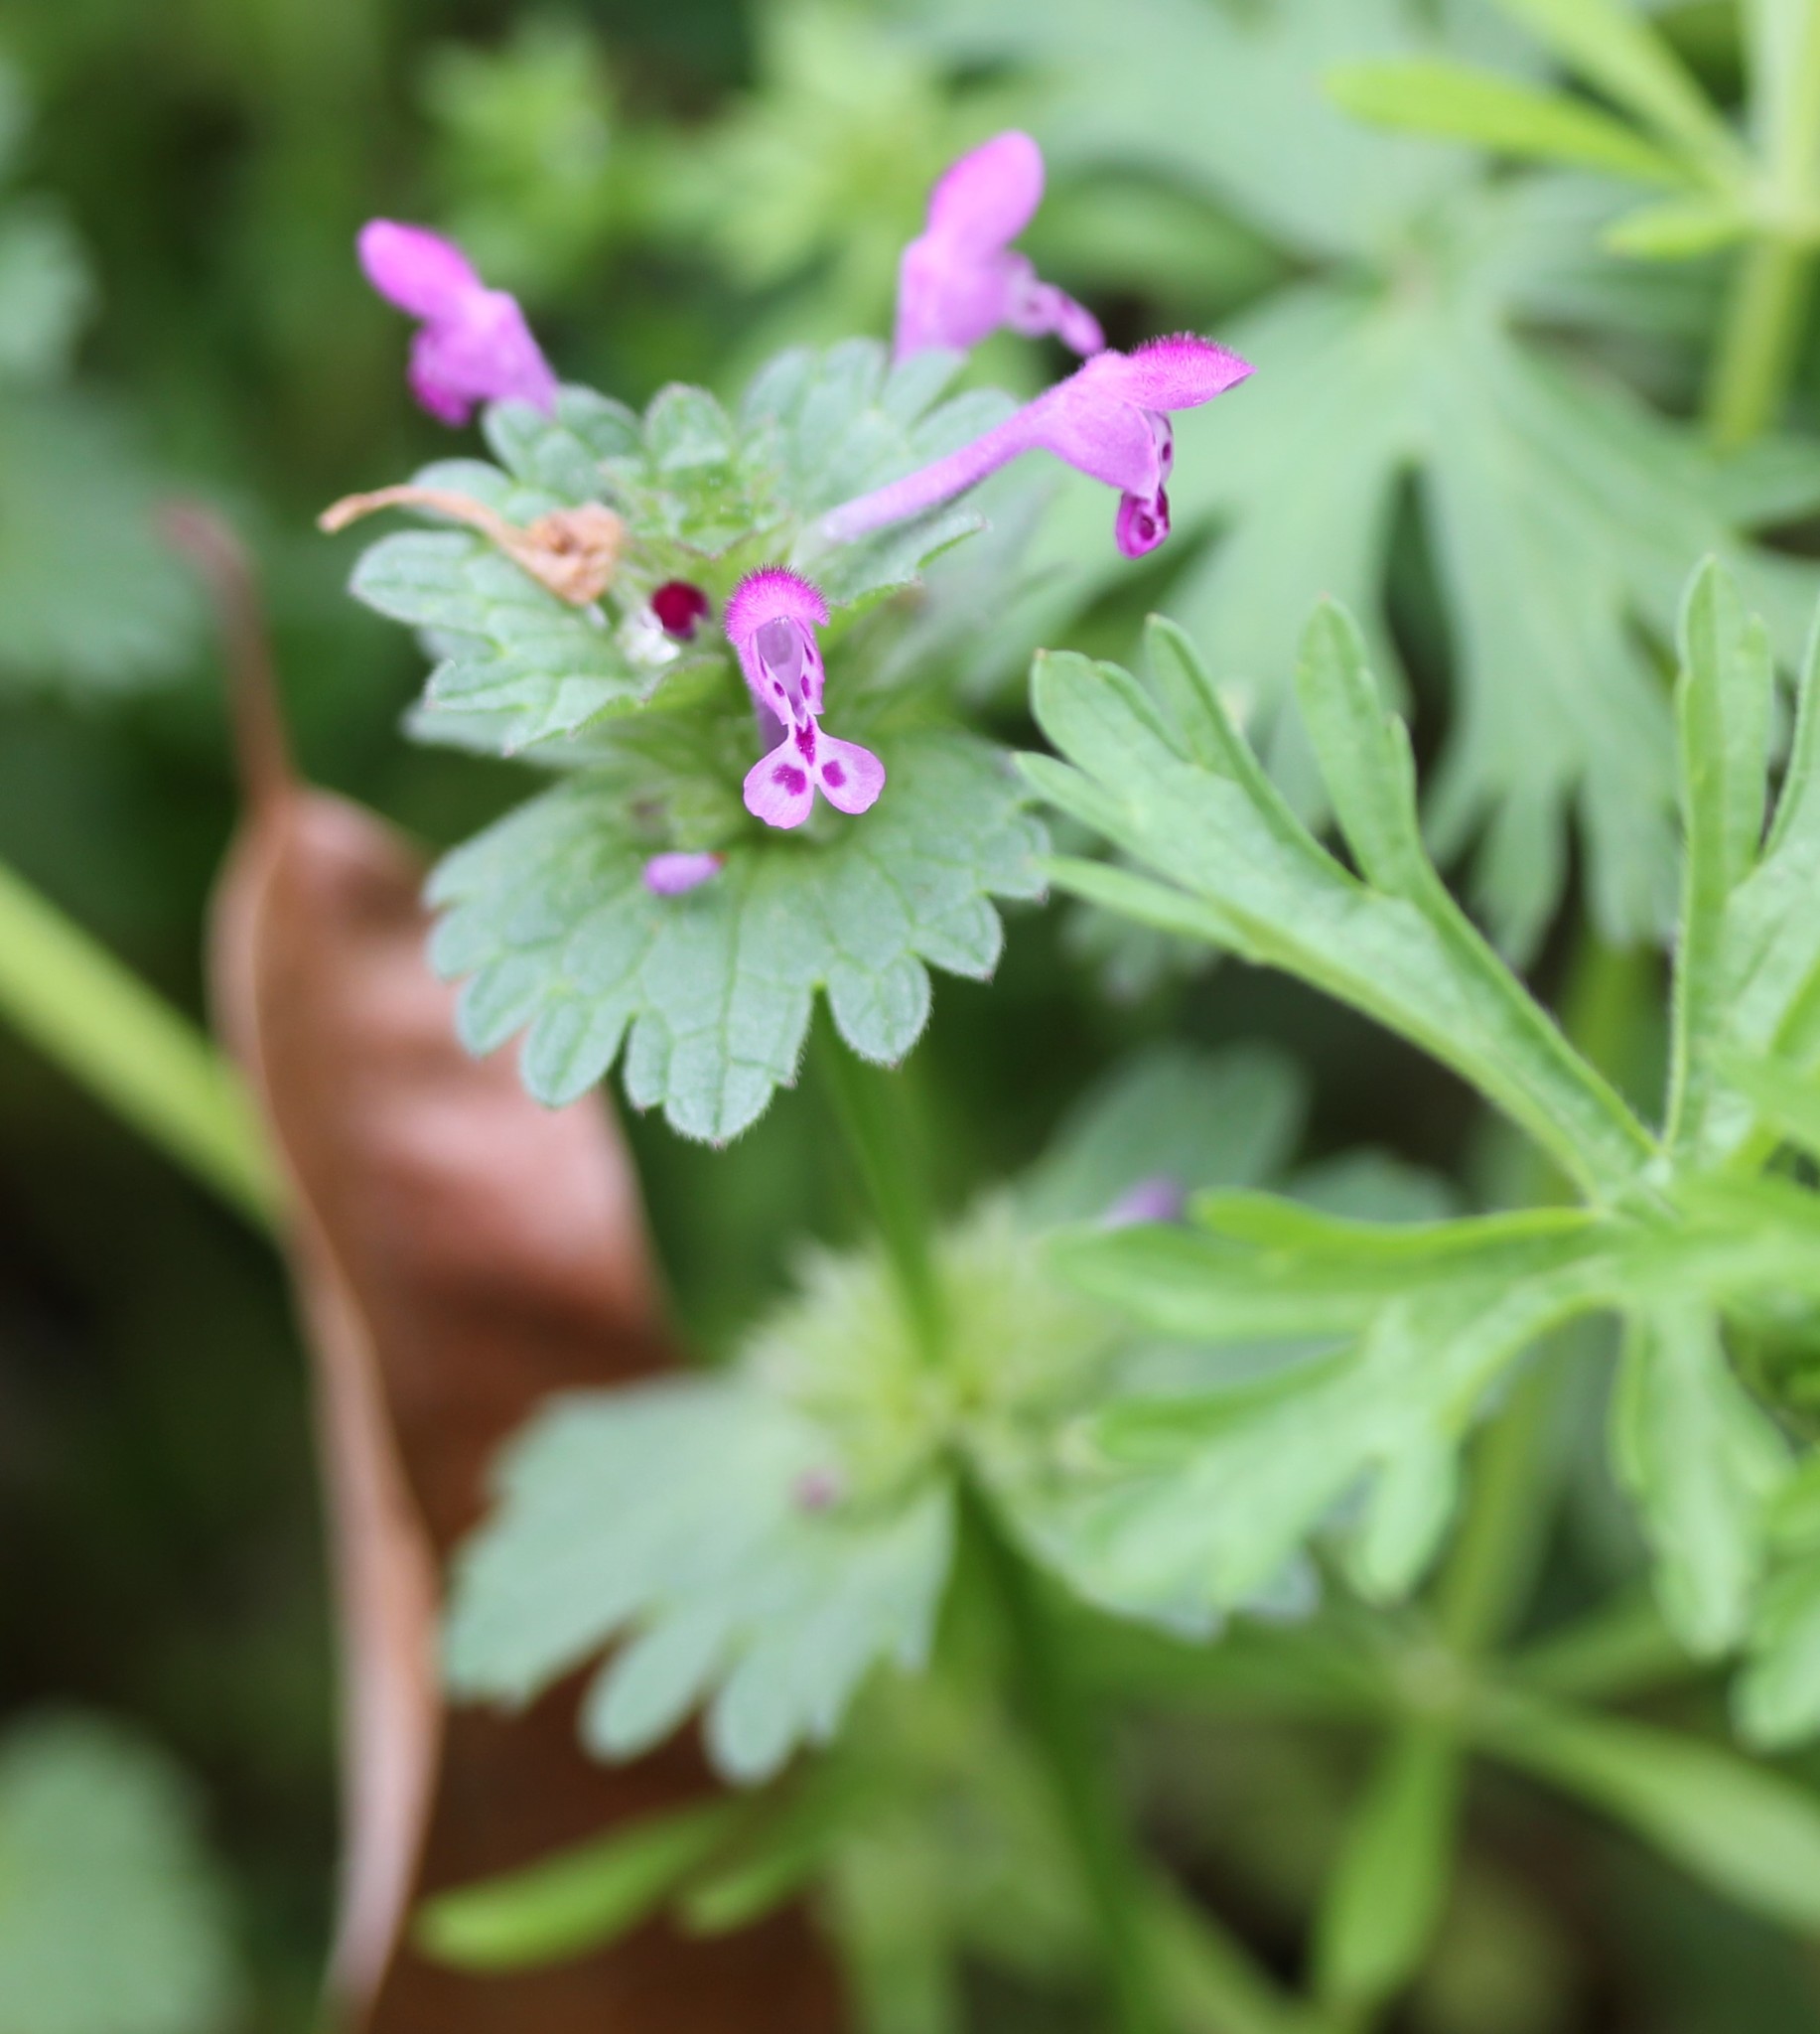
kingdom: Plantae
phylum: Tracheophyta
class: Magnoliopsida
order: Lamiales
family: Lamiaceae
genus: Lamium
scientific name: Lamium amplexicaule
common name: Henbit dead-nettle
